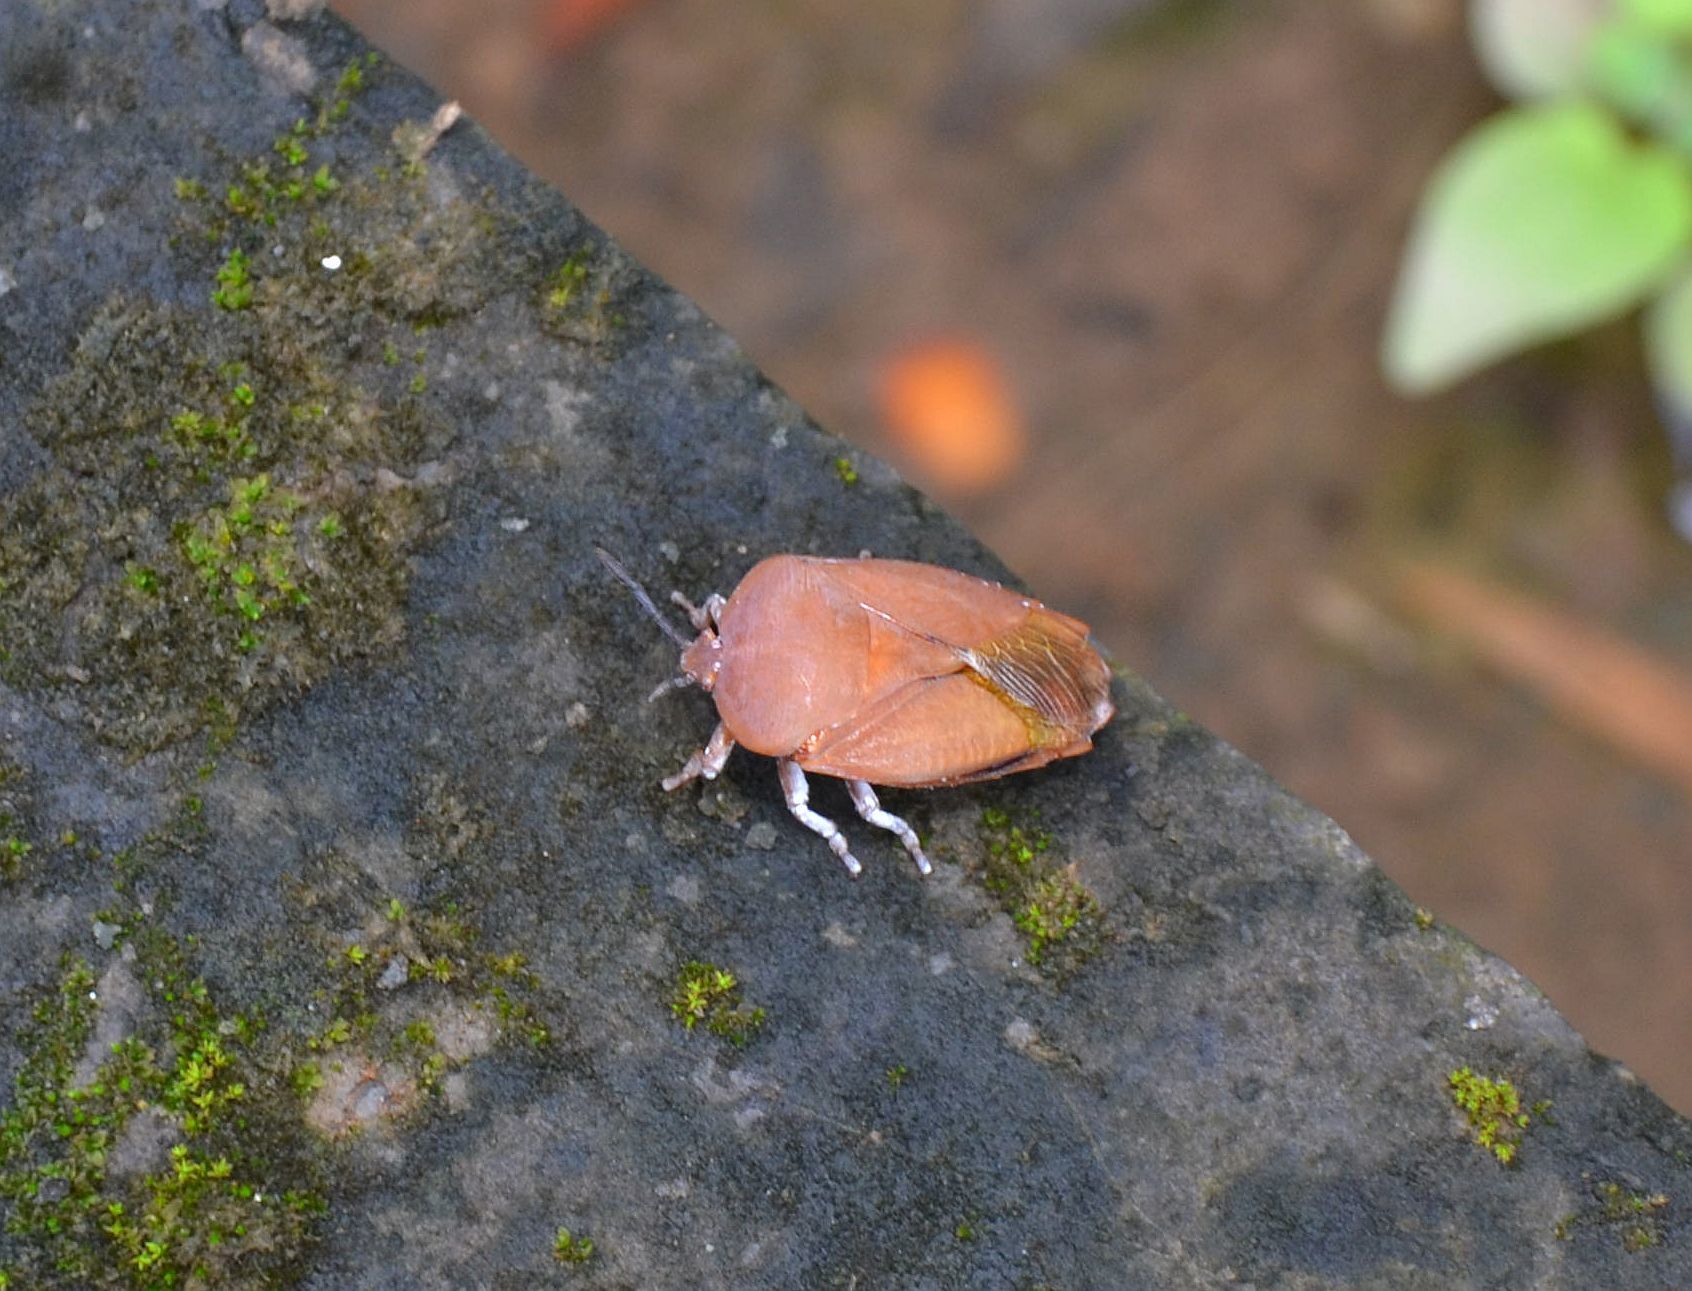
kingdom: Animalia
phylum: Arthropoda
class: Insecta
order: Hemiptera
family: Tessaratomidae
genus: Tessaratoma
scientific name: Tessaratoma papillosa
